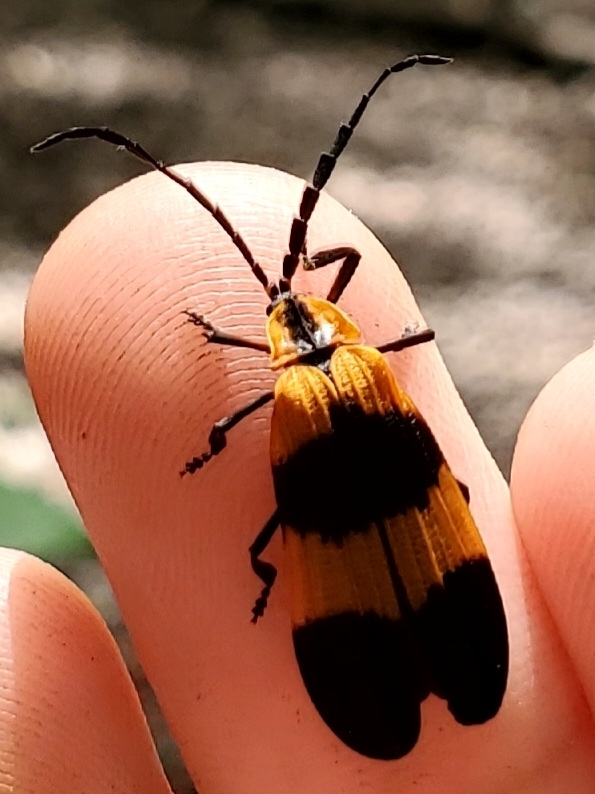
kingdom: Animalia
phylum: Arthropoda
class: Insecta
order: Coleoptera
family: Lycidae
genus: Calopteron
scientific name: Calopteron reticulatum
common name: Banded net-winged beetle
